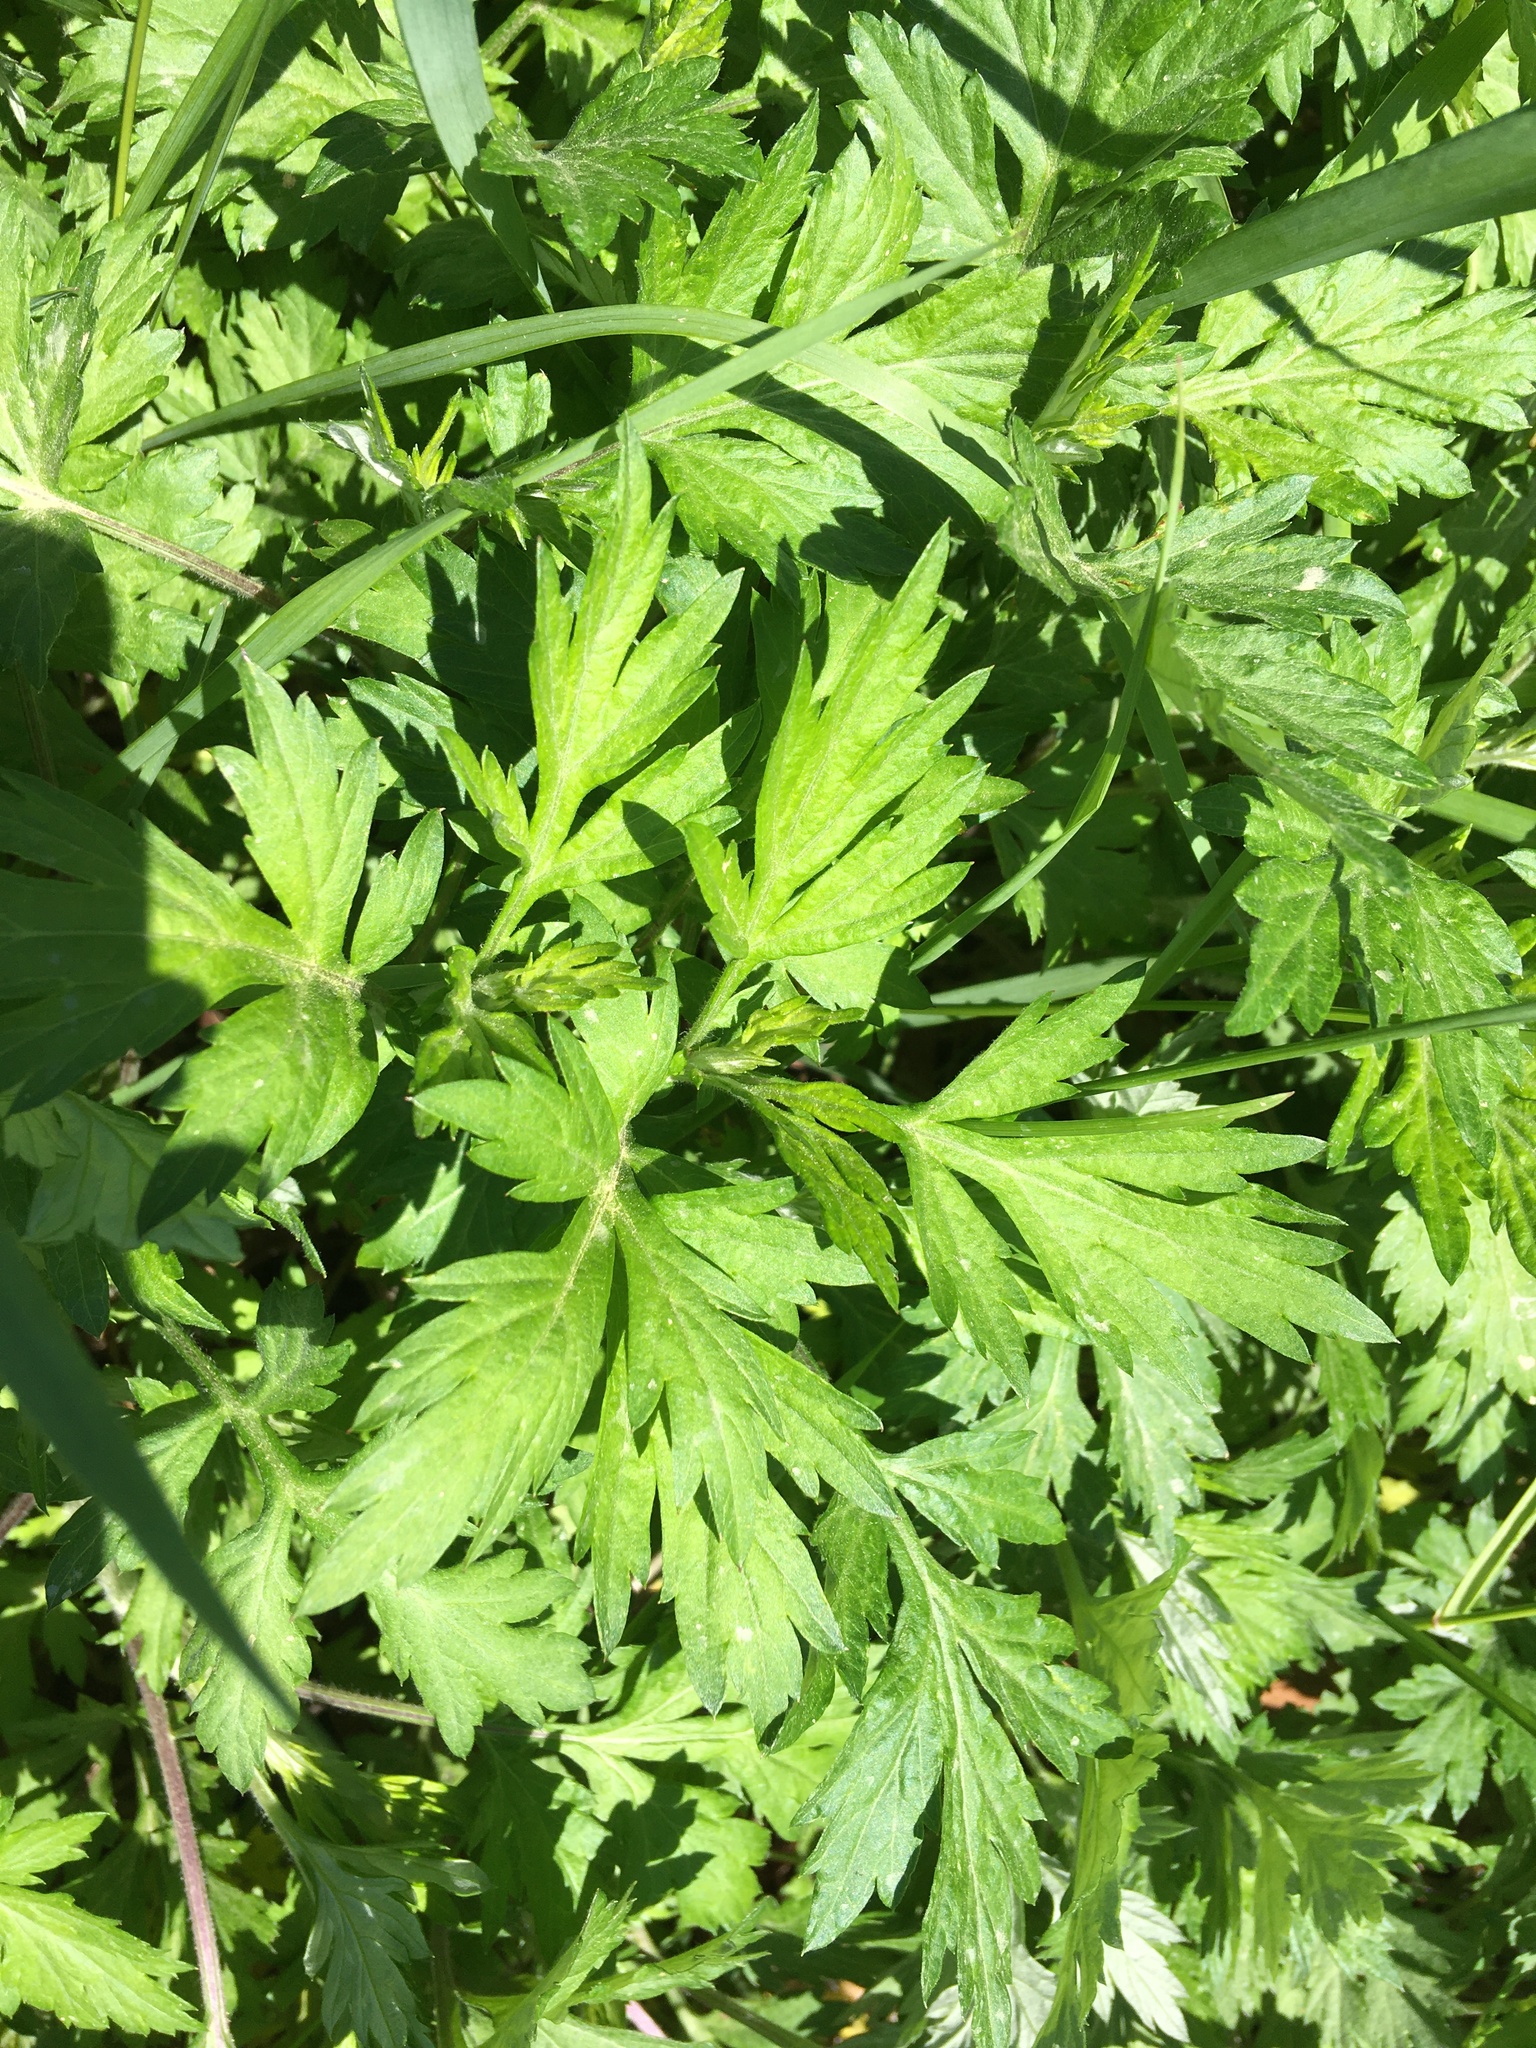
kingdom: Plantae
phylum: Tracheophyta
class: Magnoliopsida
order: Asterales
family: Asteraceae
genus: Artemisia
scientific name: Artemisia vulgaris
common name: Mugwort
